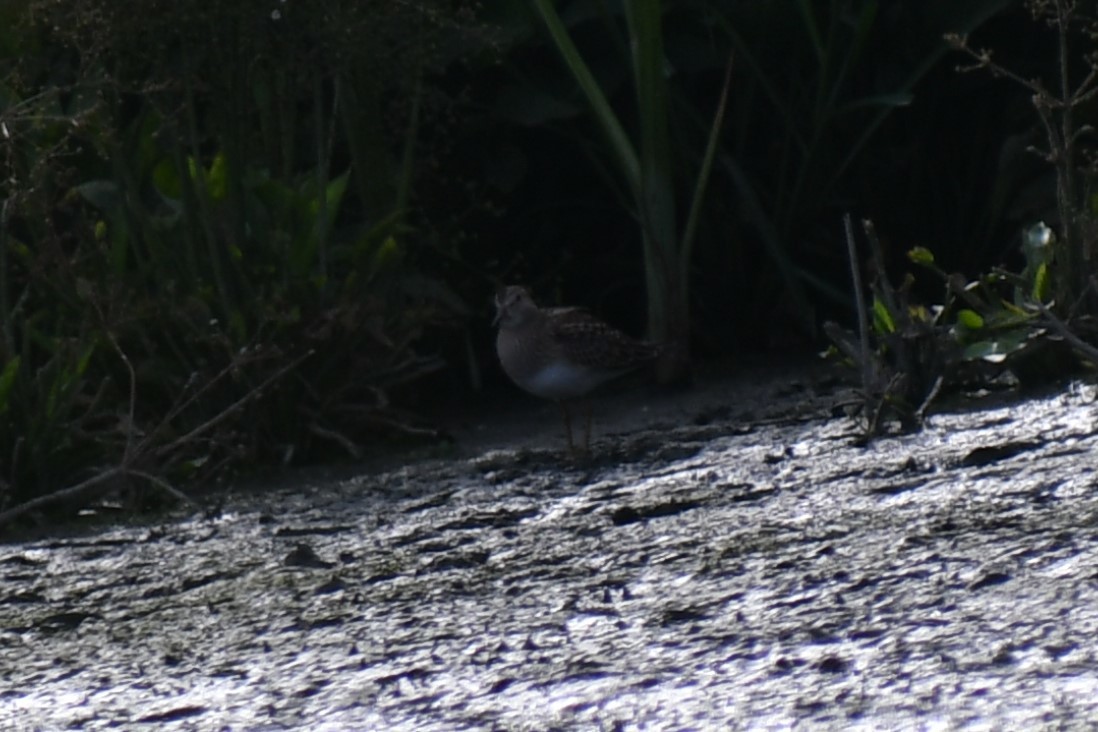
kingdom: Animalia
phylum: Chordata
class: Aves
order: Charadriiformes
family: Scolopacidae
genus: Calidris
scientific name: Calidris melanotos
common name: Pectoral sandpiper
